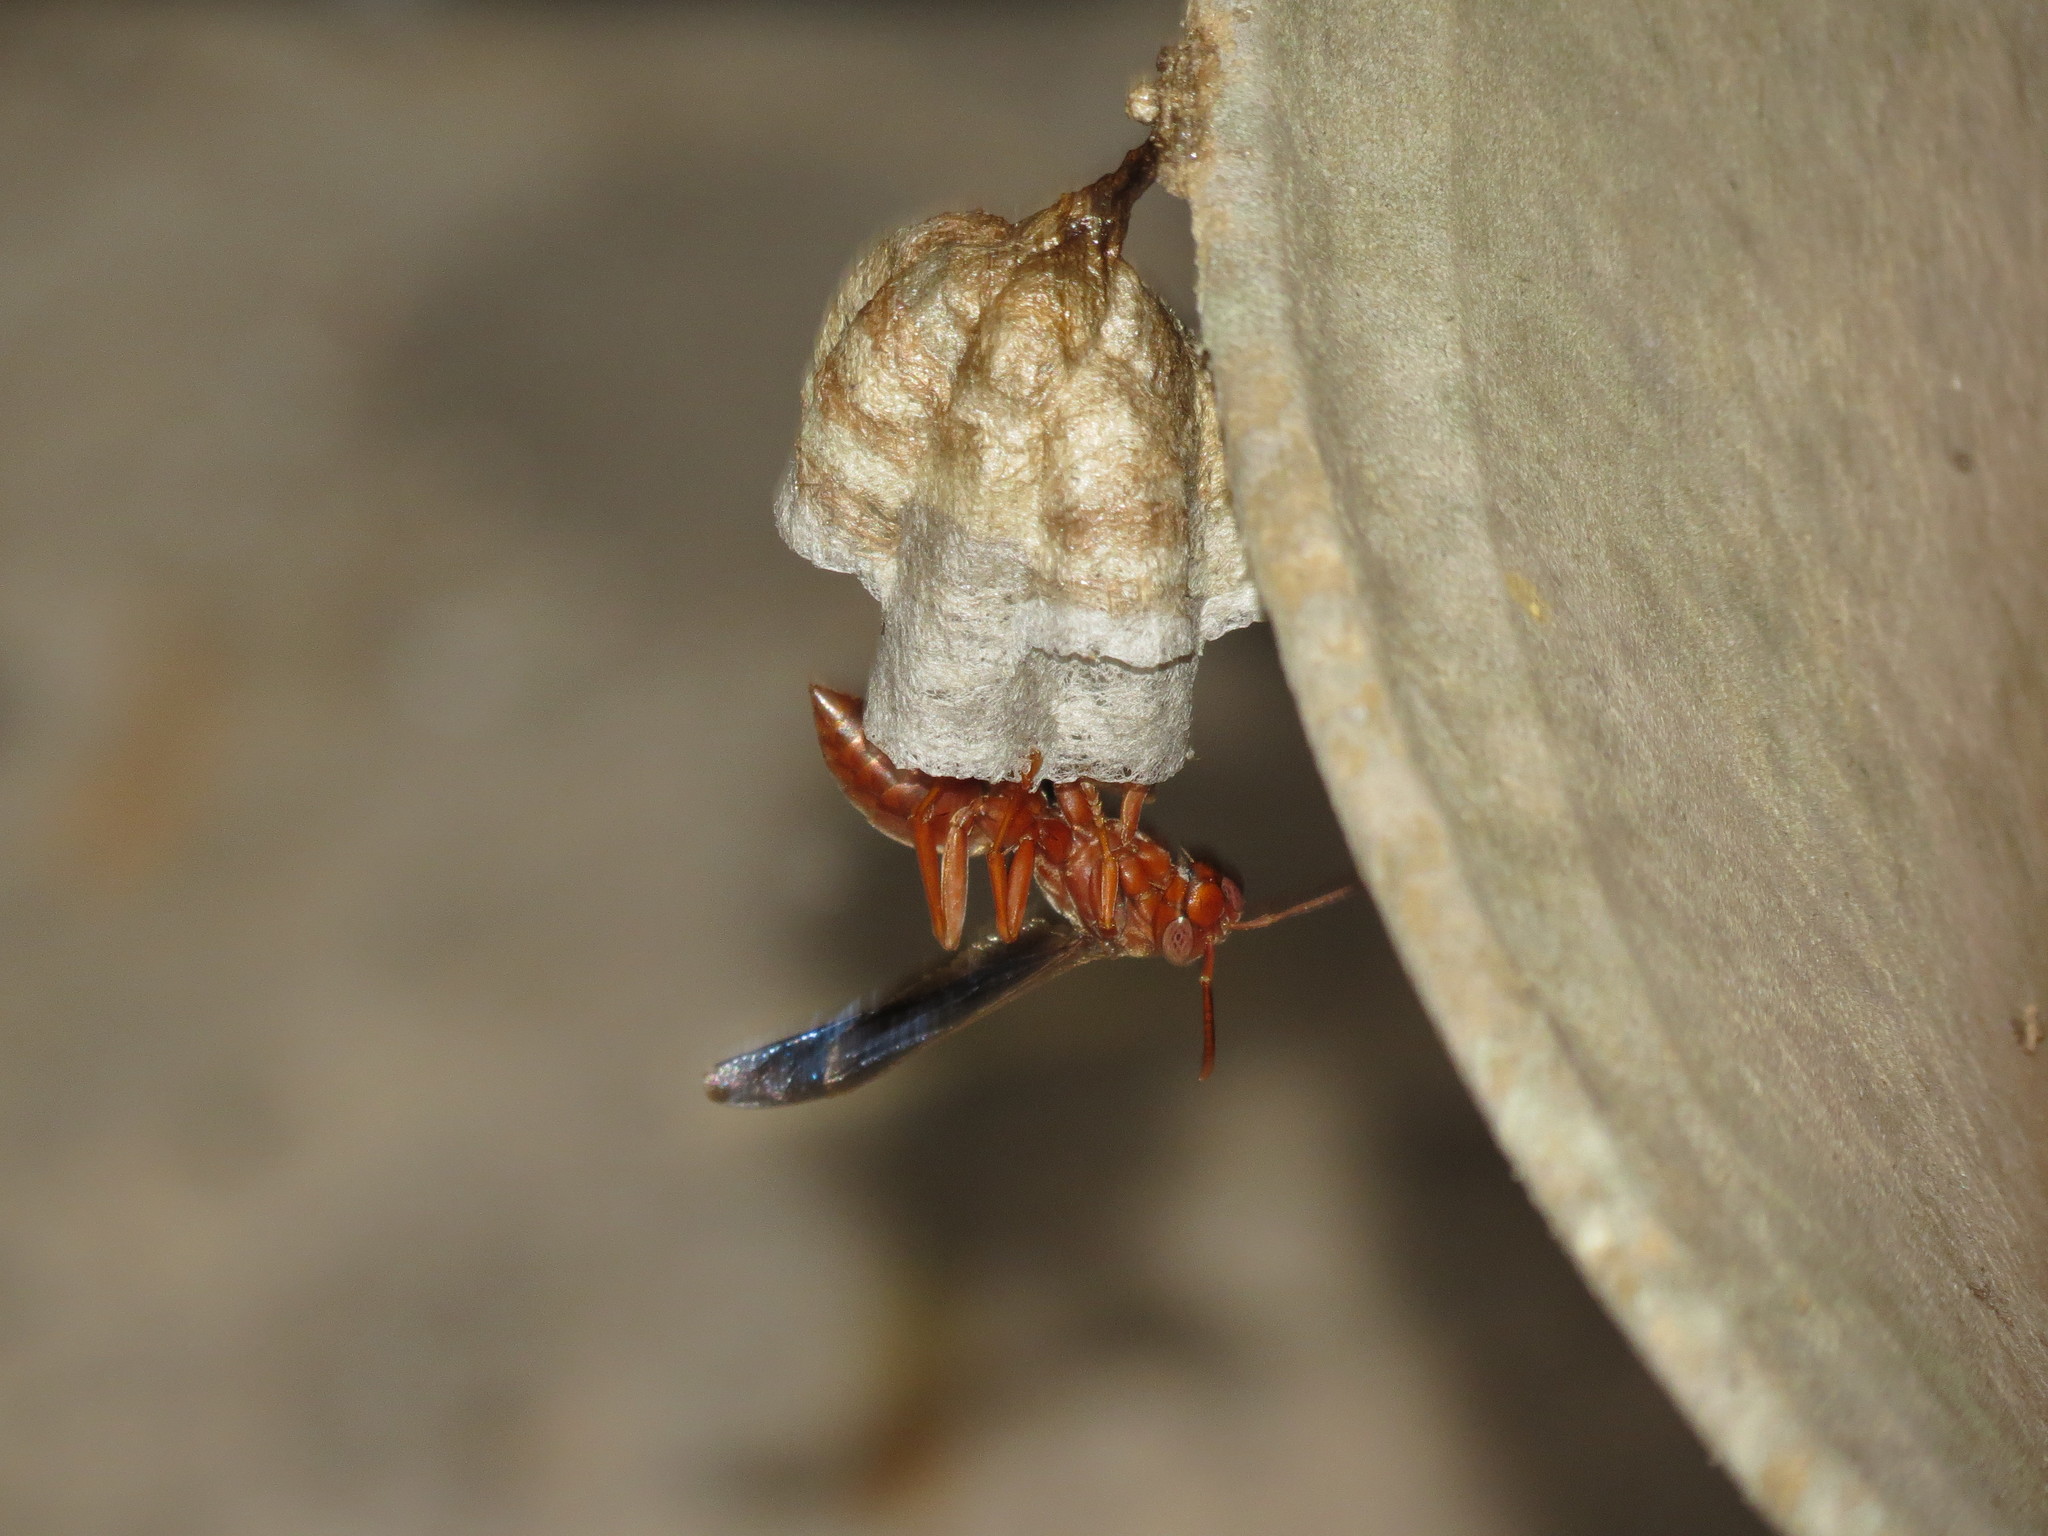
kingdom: Animalia
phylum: Arthropoda
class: Insecta
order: Hymenoptera
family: Vespidae
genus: Fuscopolistes
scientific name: Fuscopolistes
